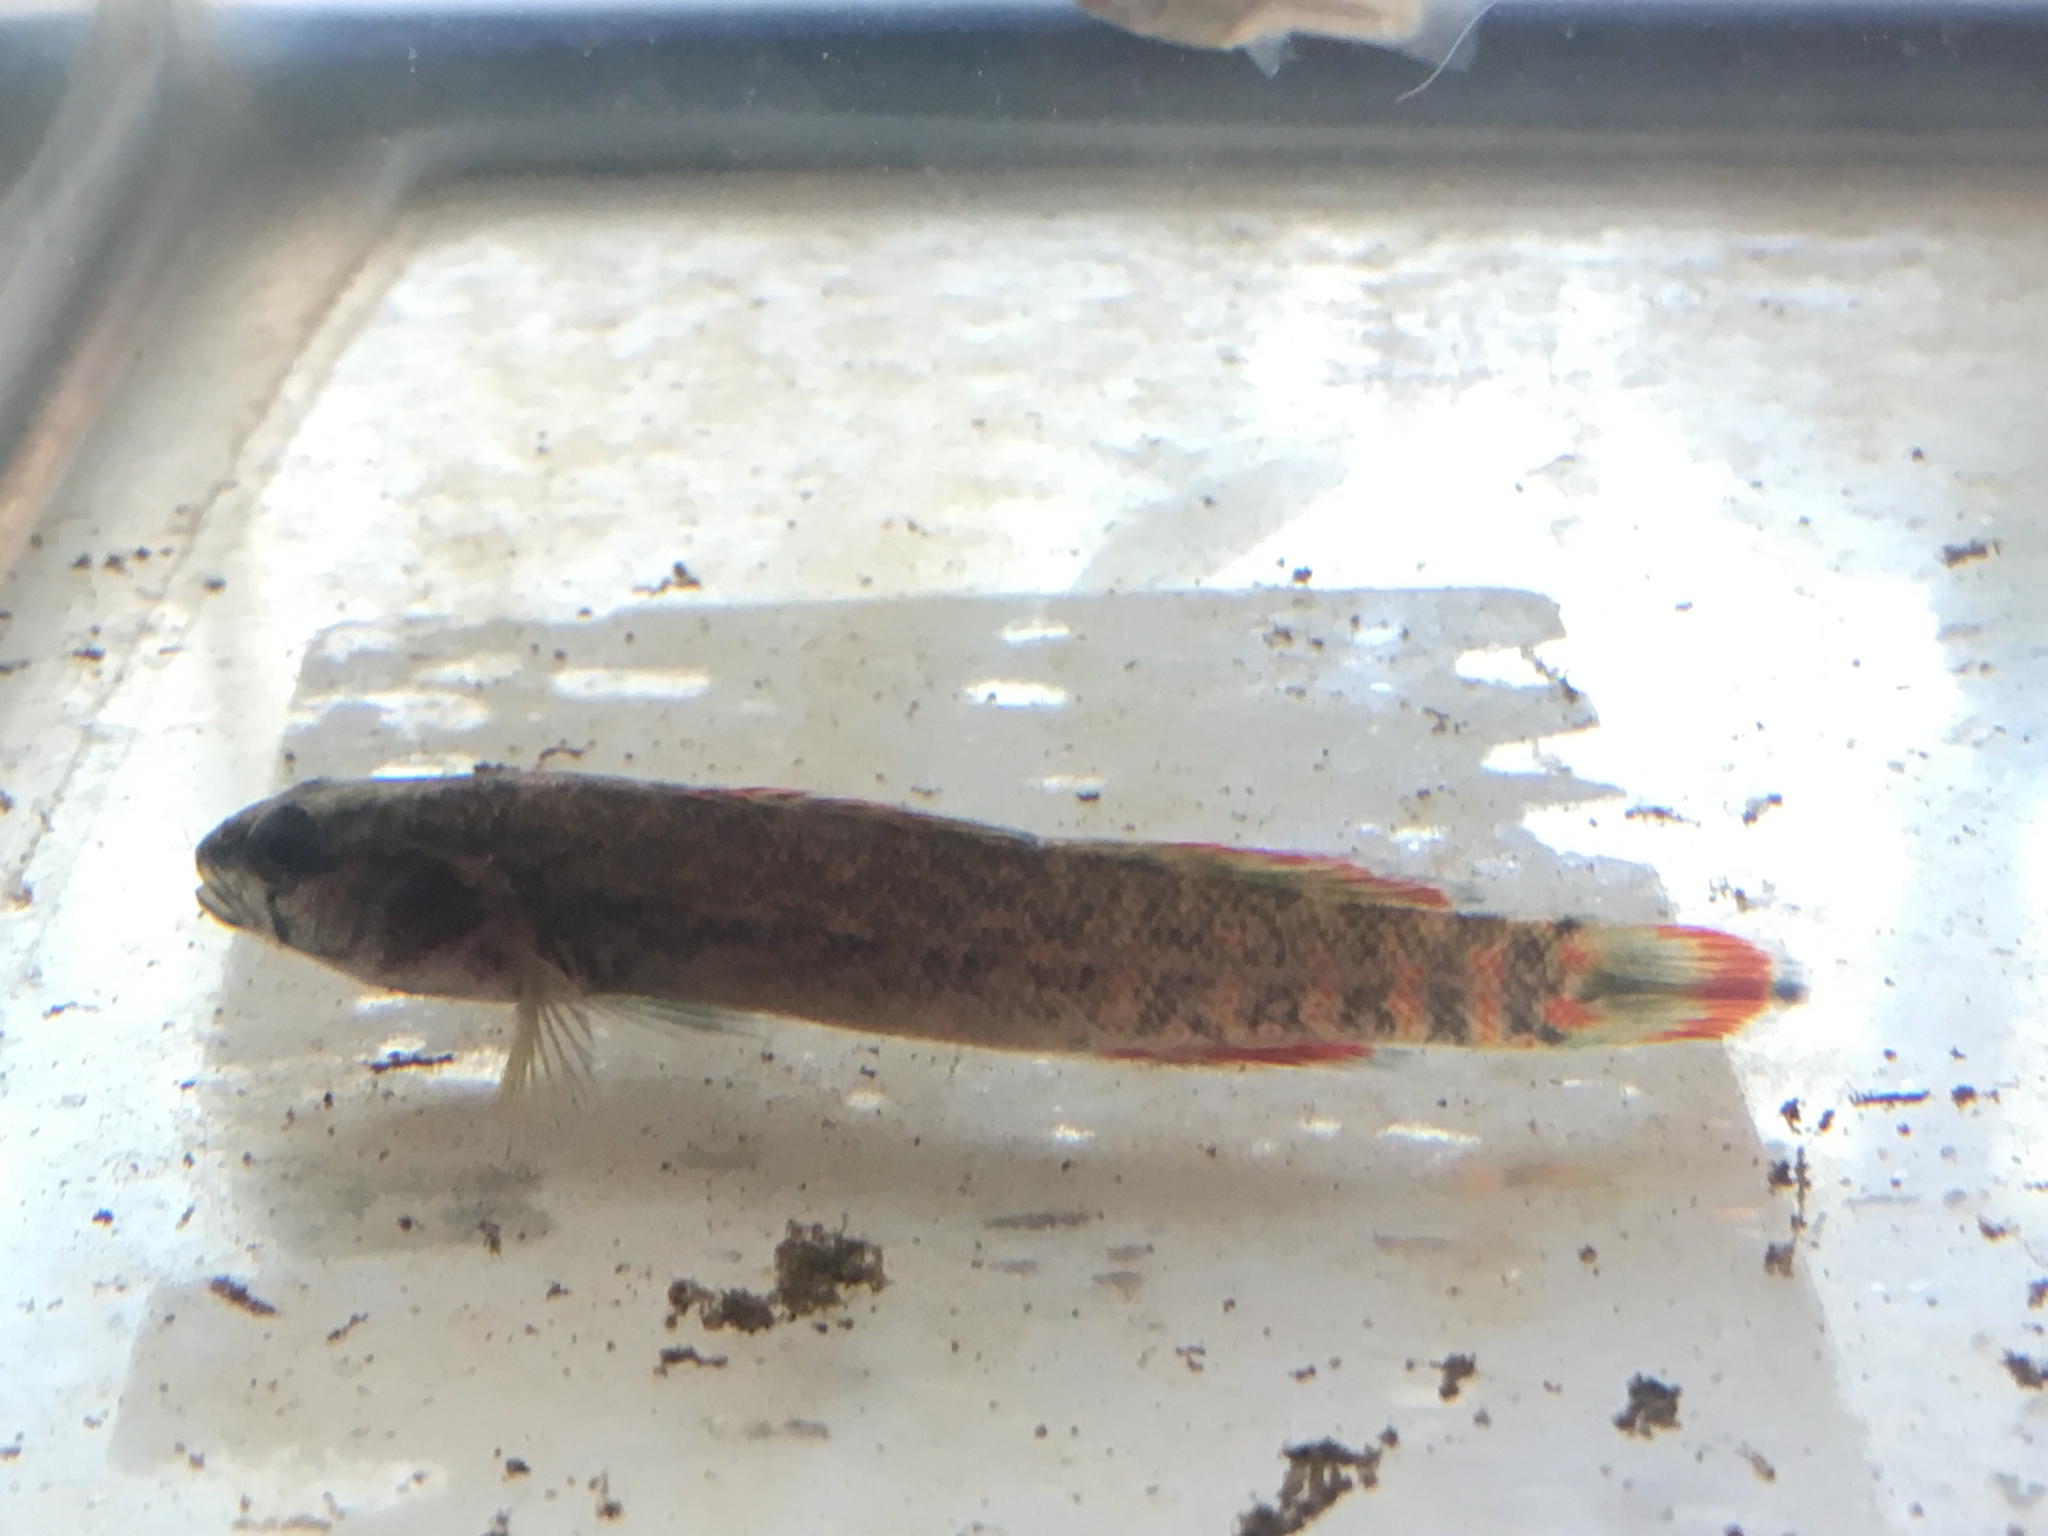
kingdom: Animalia
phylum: Chordata
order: Perciformes
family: Percidae
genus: Etheostoma
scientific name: Etheostoma artesiae
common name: Redspot darter
